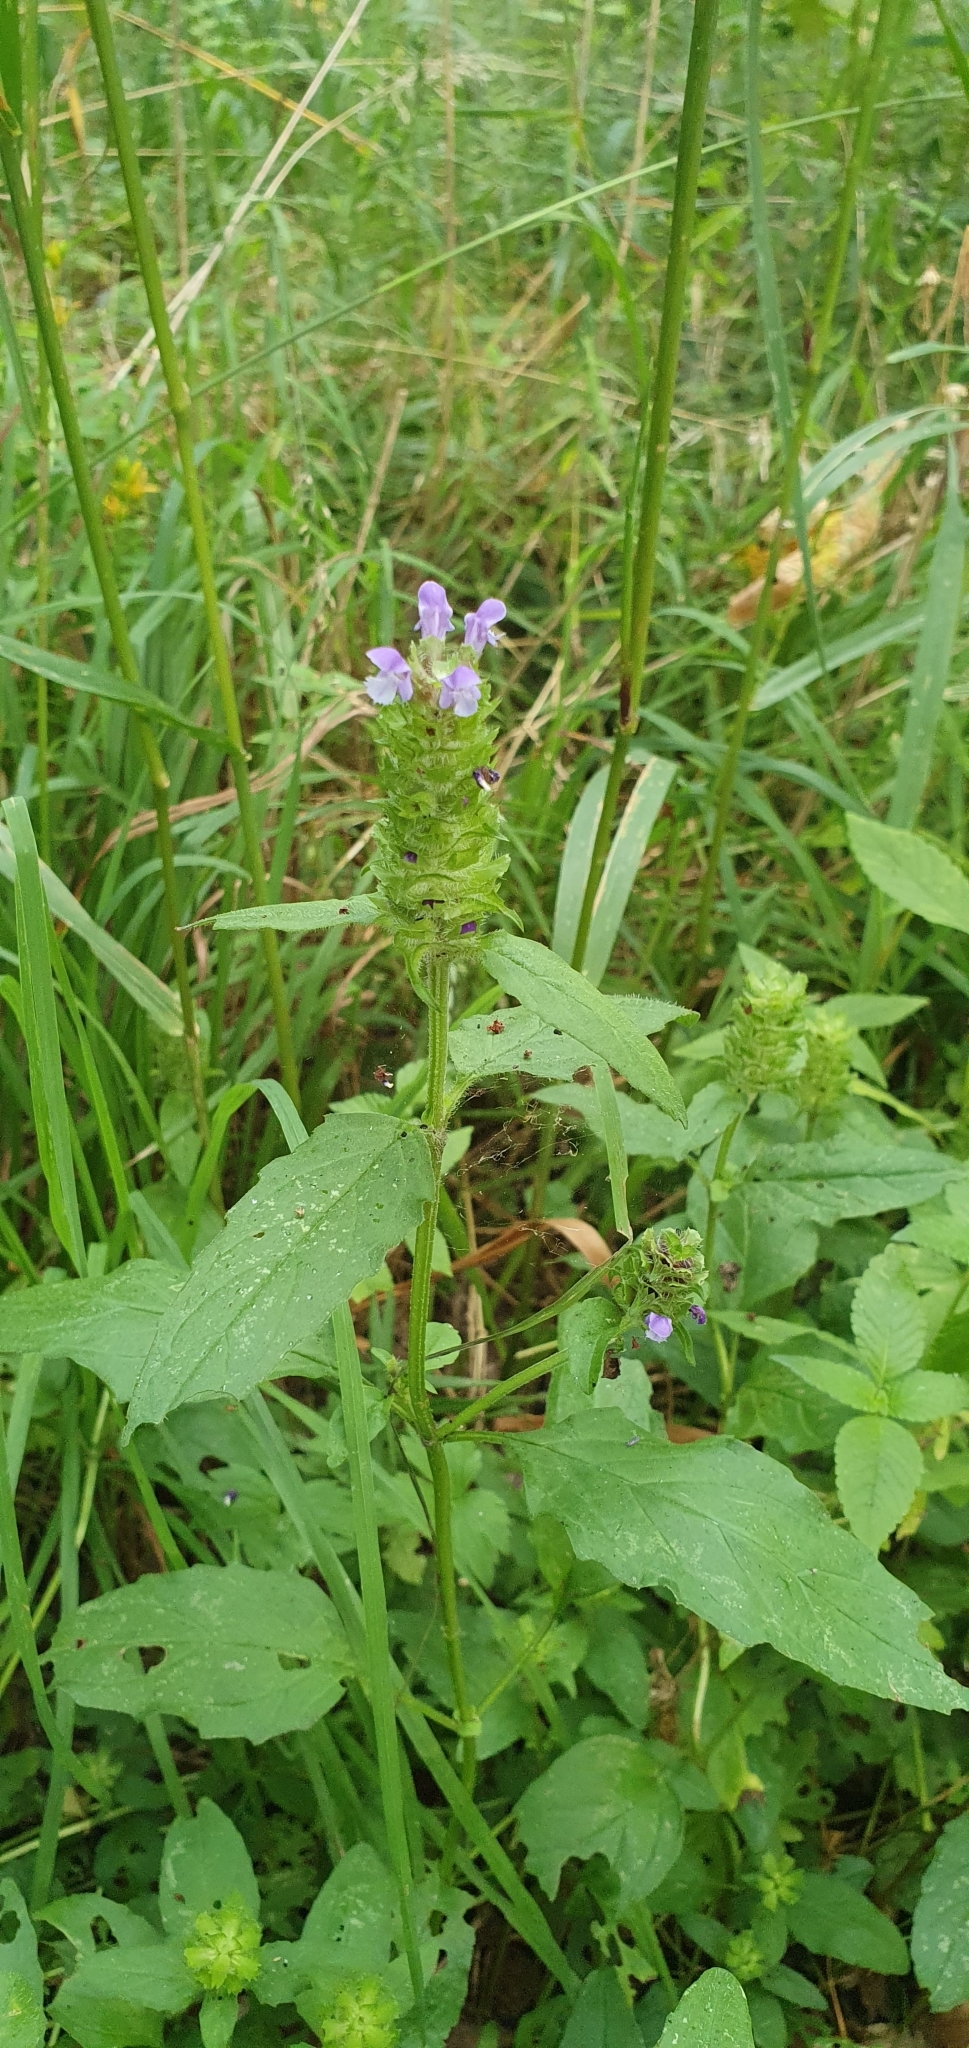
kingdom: Plantae
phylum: Tracheophyta
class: Magnoliopsida
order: Lamiales
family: Lamiaceae
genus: Prunella
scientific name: Prunella vulgaris
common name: Heal-all
